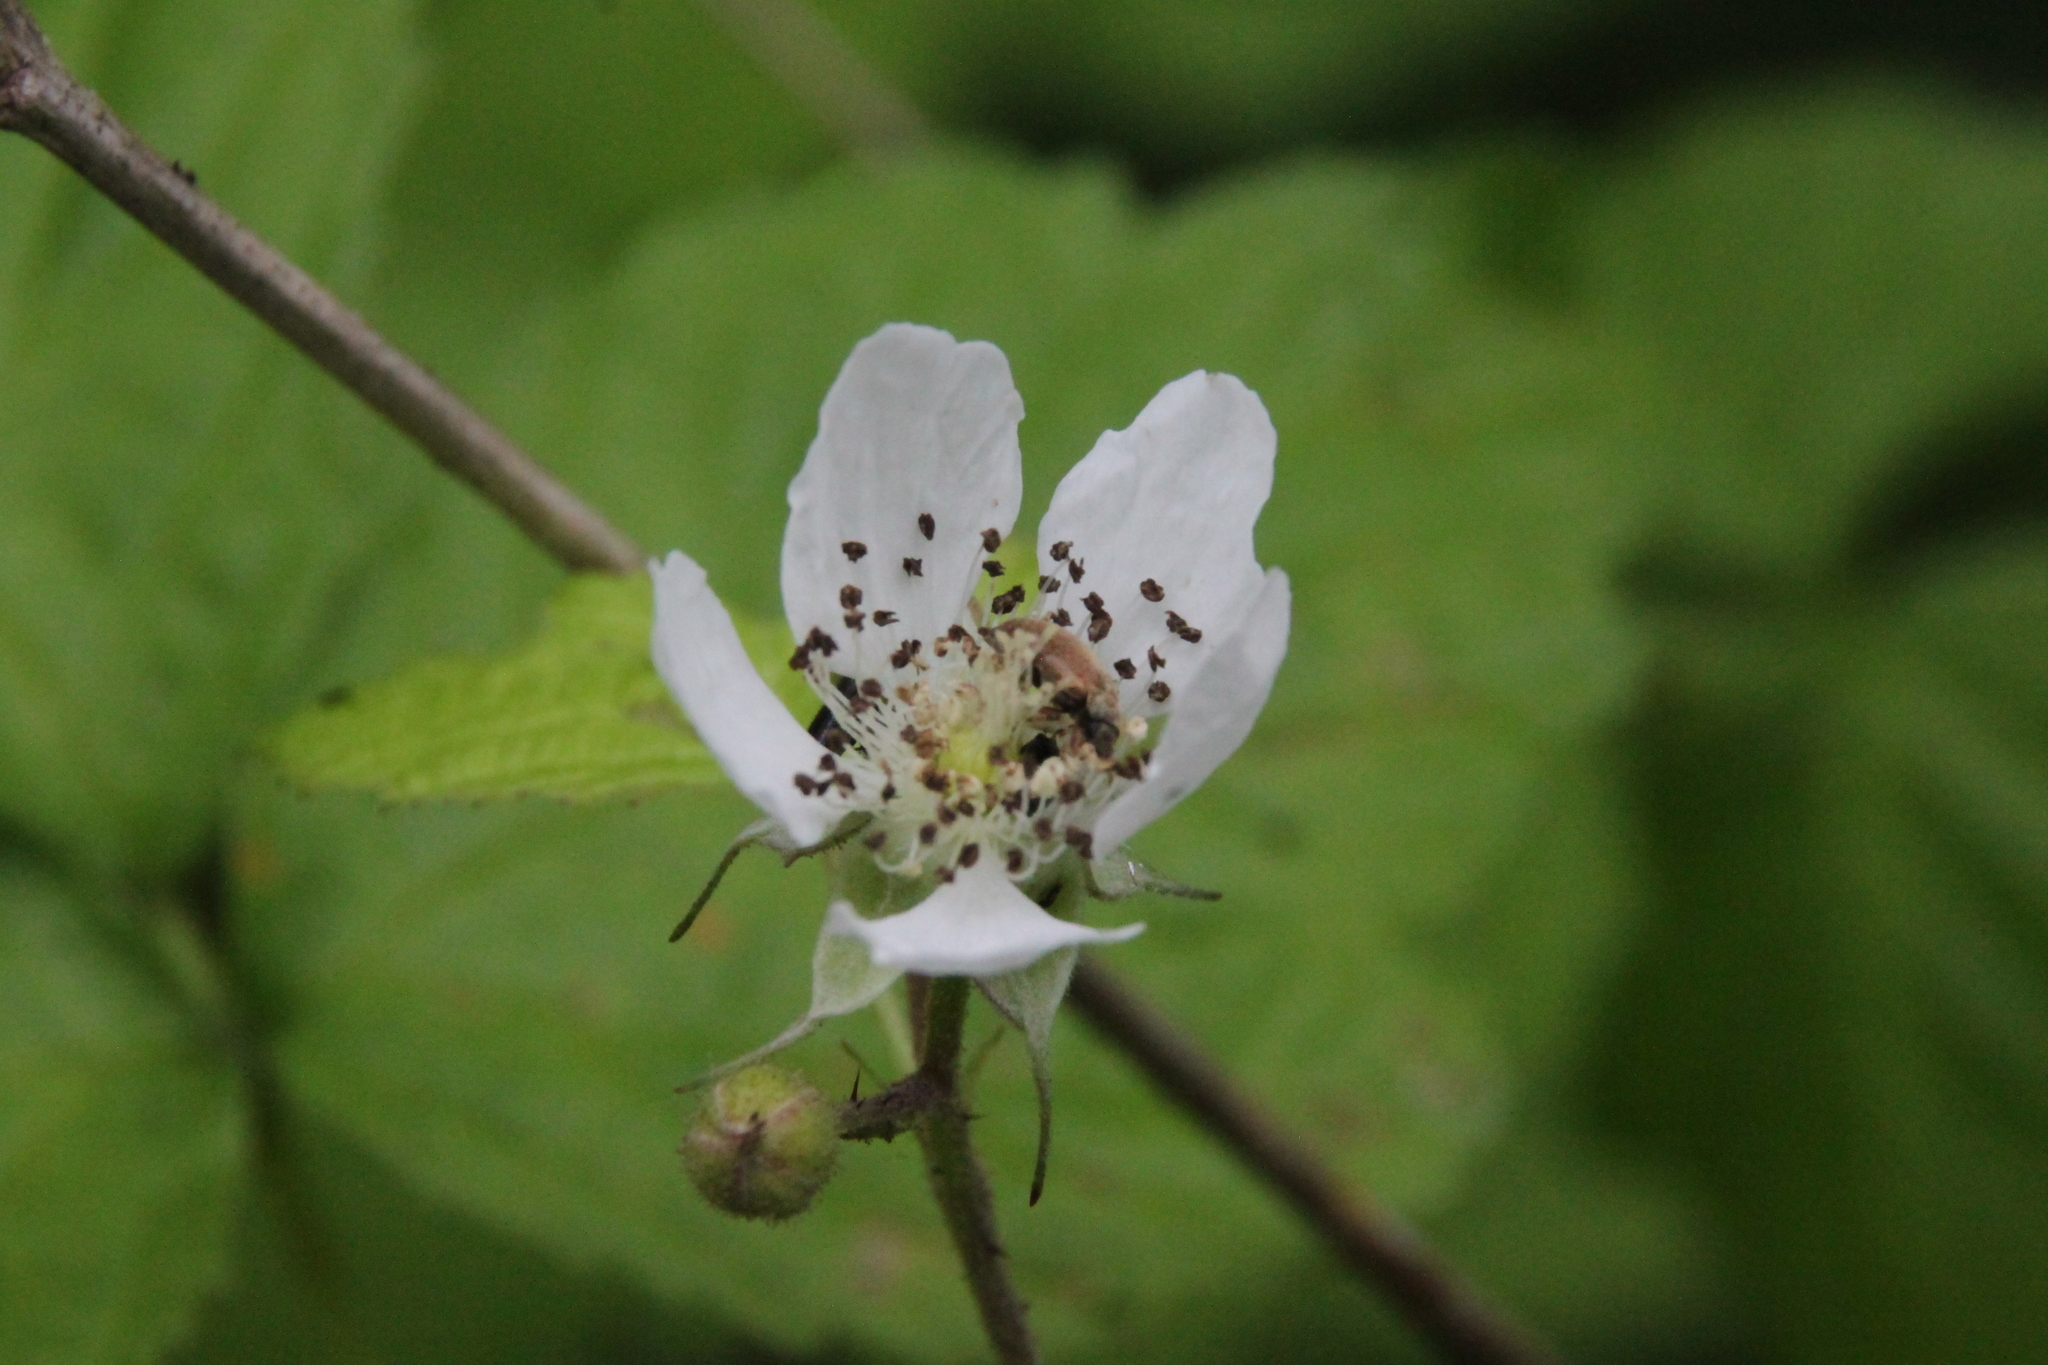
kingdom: Plantae
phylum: Tracheophyta
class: Magnoliopsida
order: Rosales
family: Rosaceae
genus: Rubus
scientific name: Rubus caesius
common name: Dewberry
